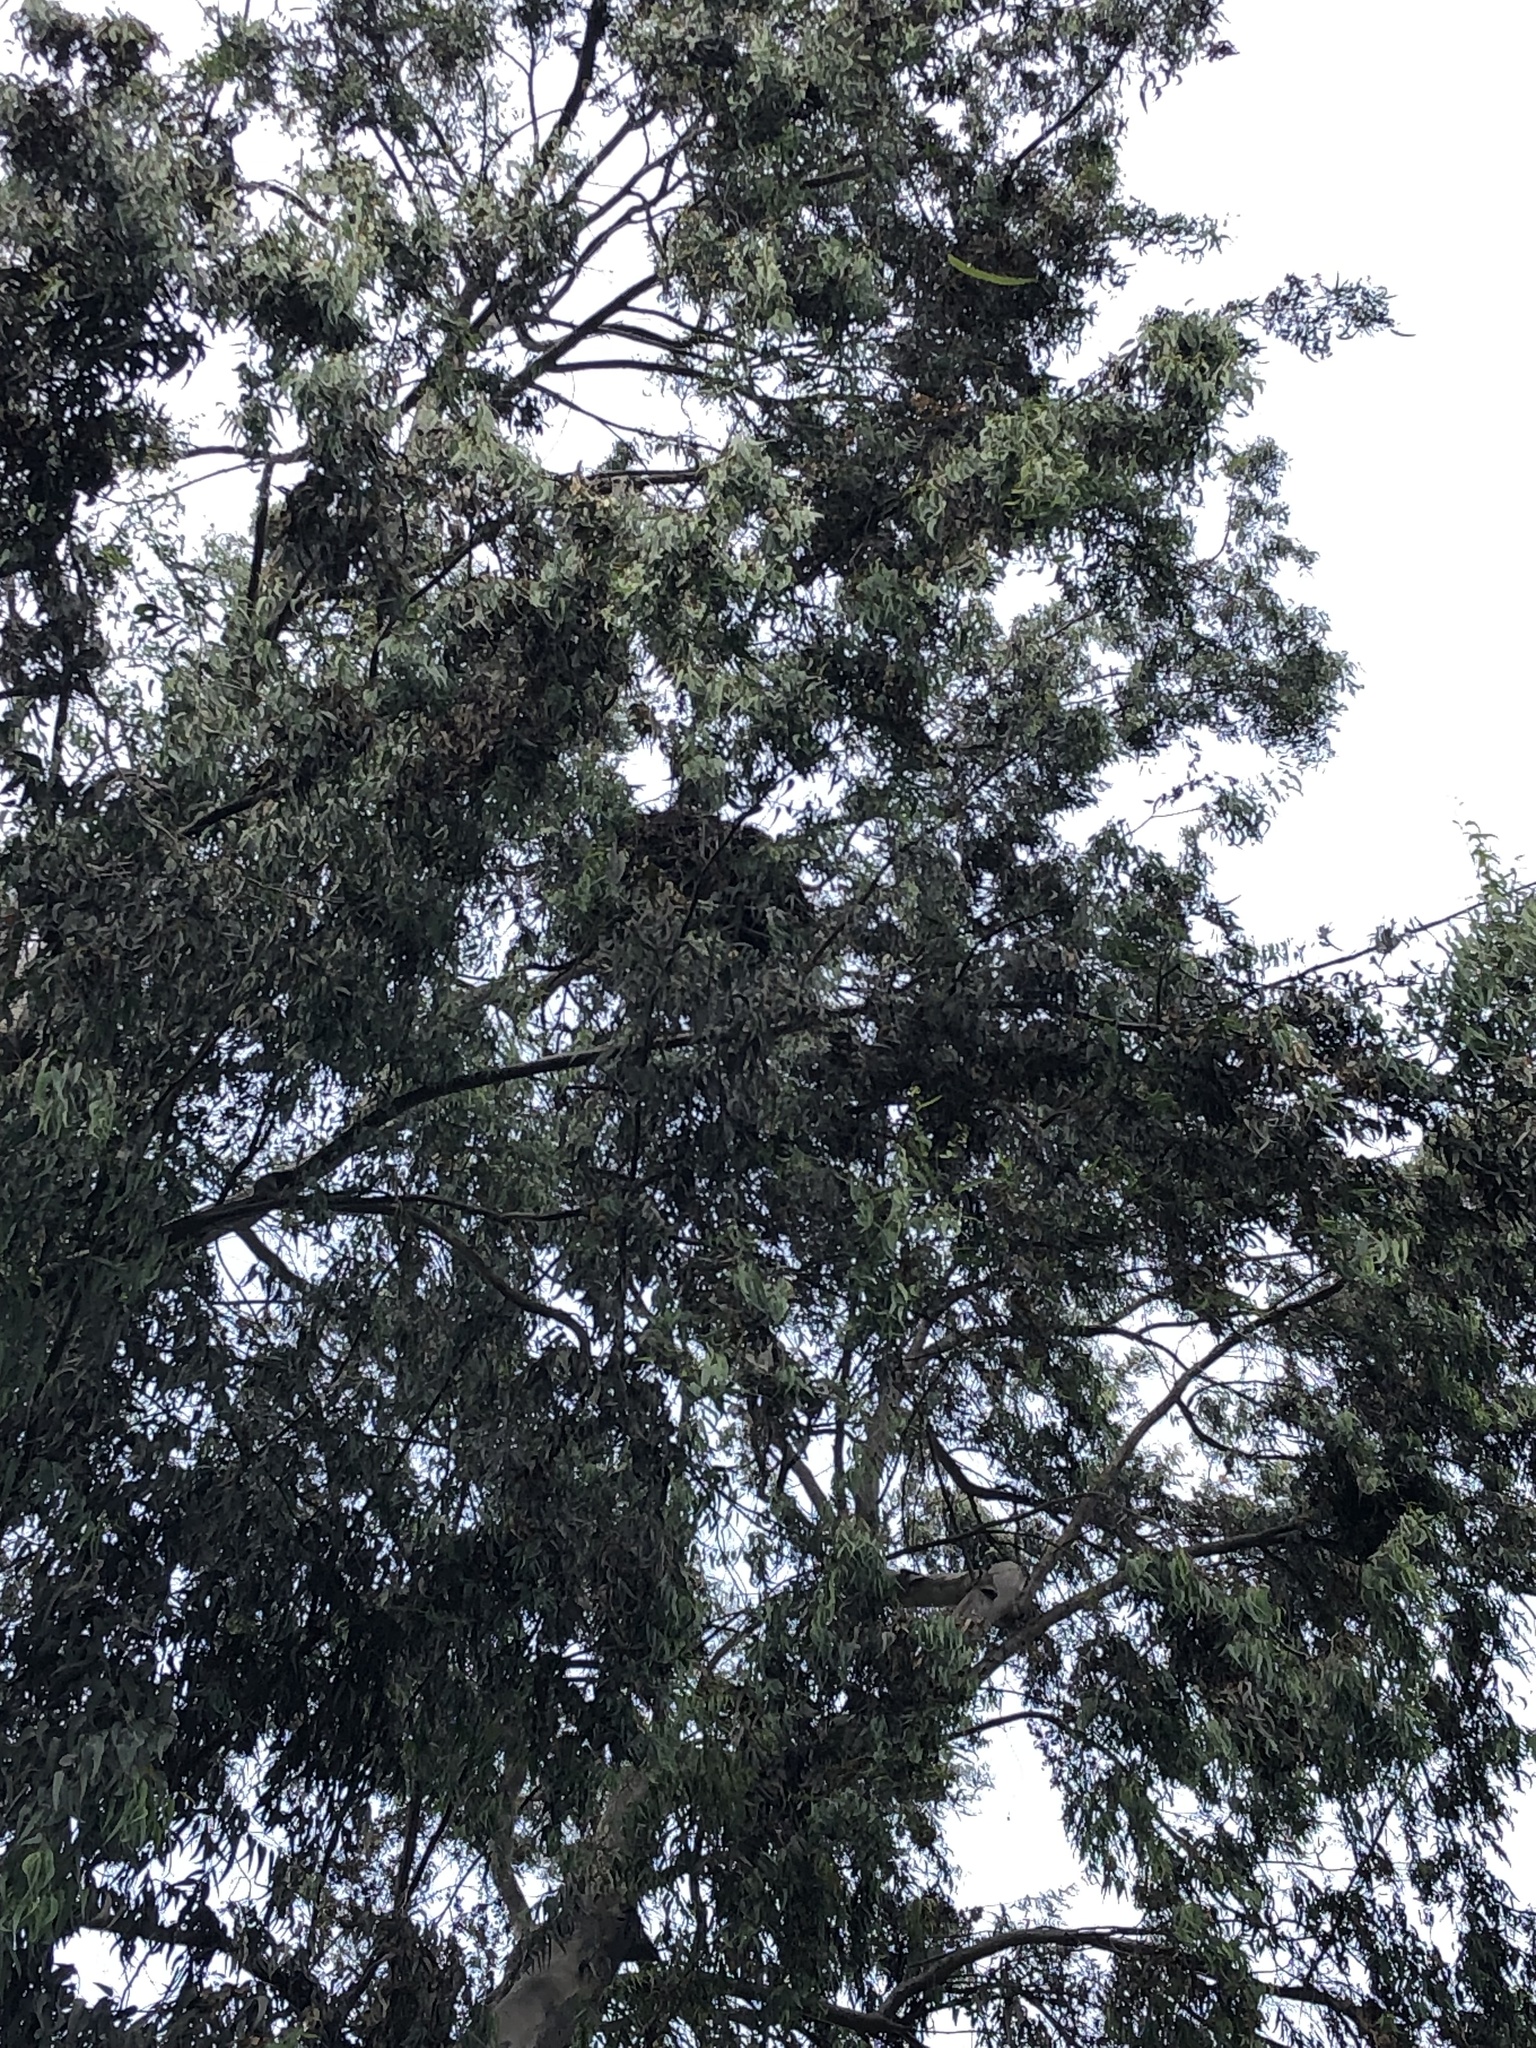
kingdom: Animalia
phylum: Chordata
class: Aves
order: Accipitriformes
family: Accipitridae
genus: Parabuteo
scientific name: Parabuteo unicinctus
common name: Harris's hawk
